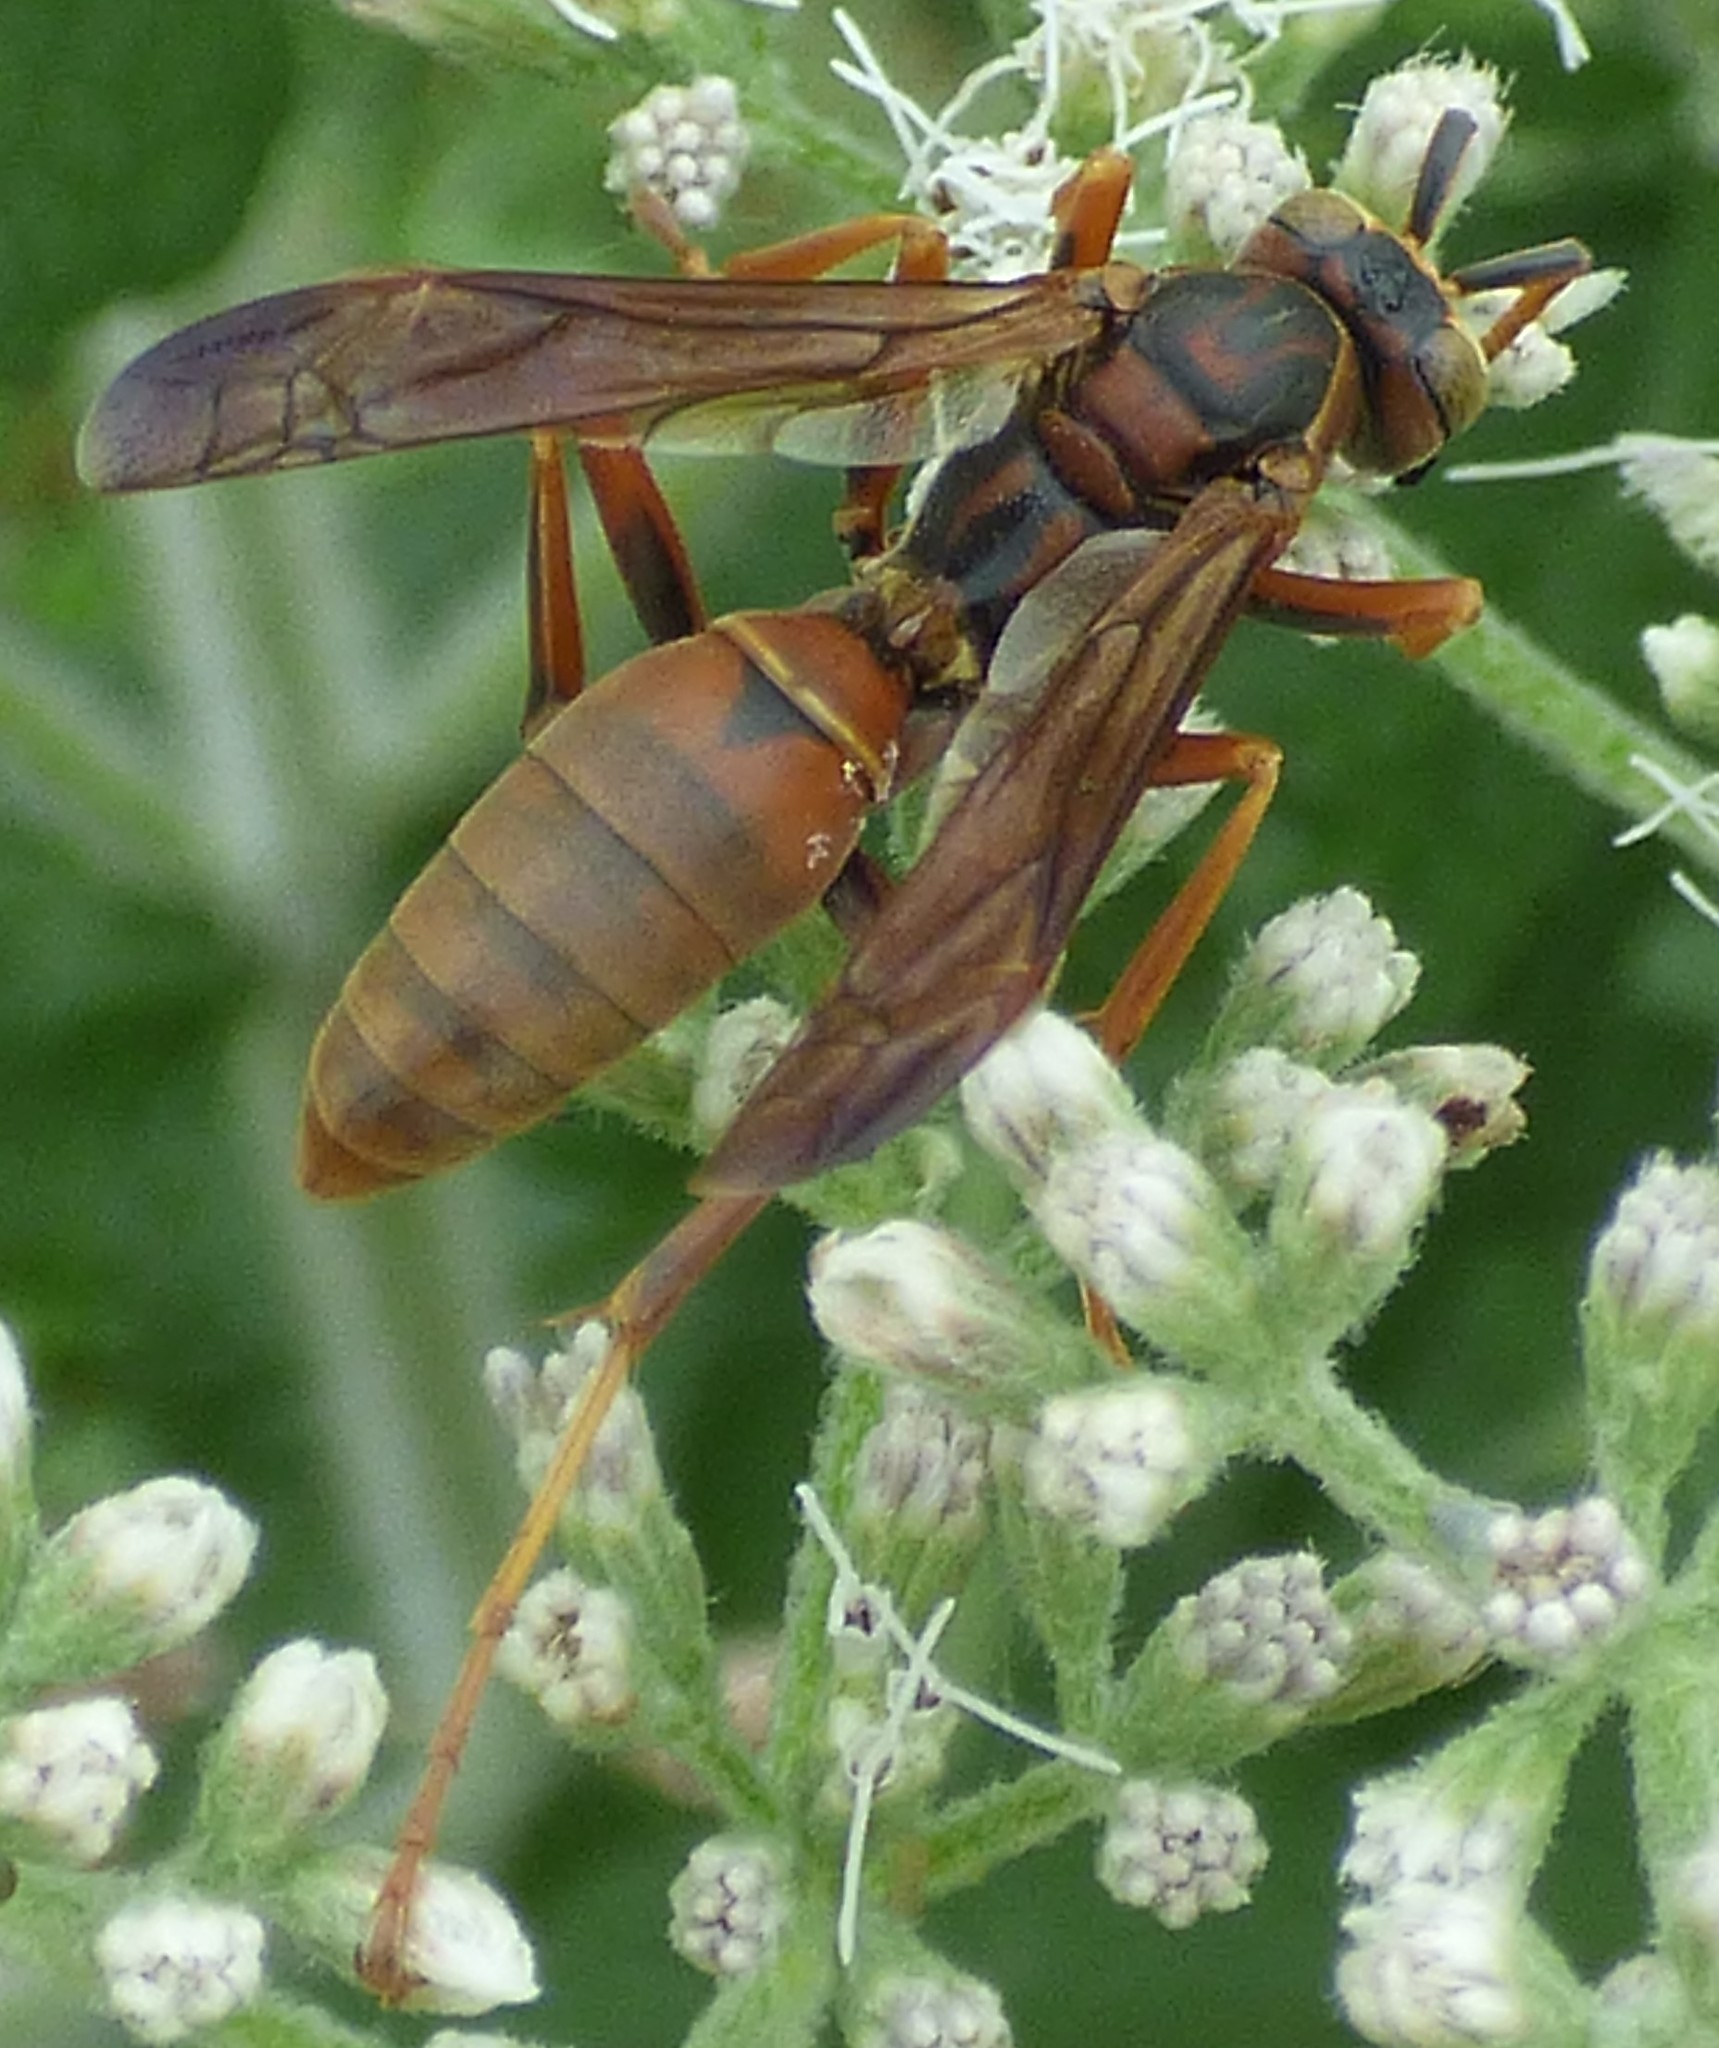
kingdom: Animalia
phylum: Arthropoda
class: Insecta
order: Hymenoptera
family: Eumenidae
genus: Polistes
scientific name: Polistes fuscatus
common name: Dark paper wasp
